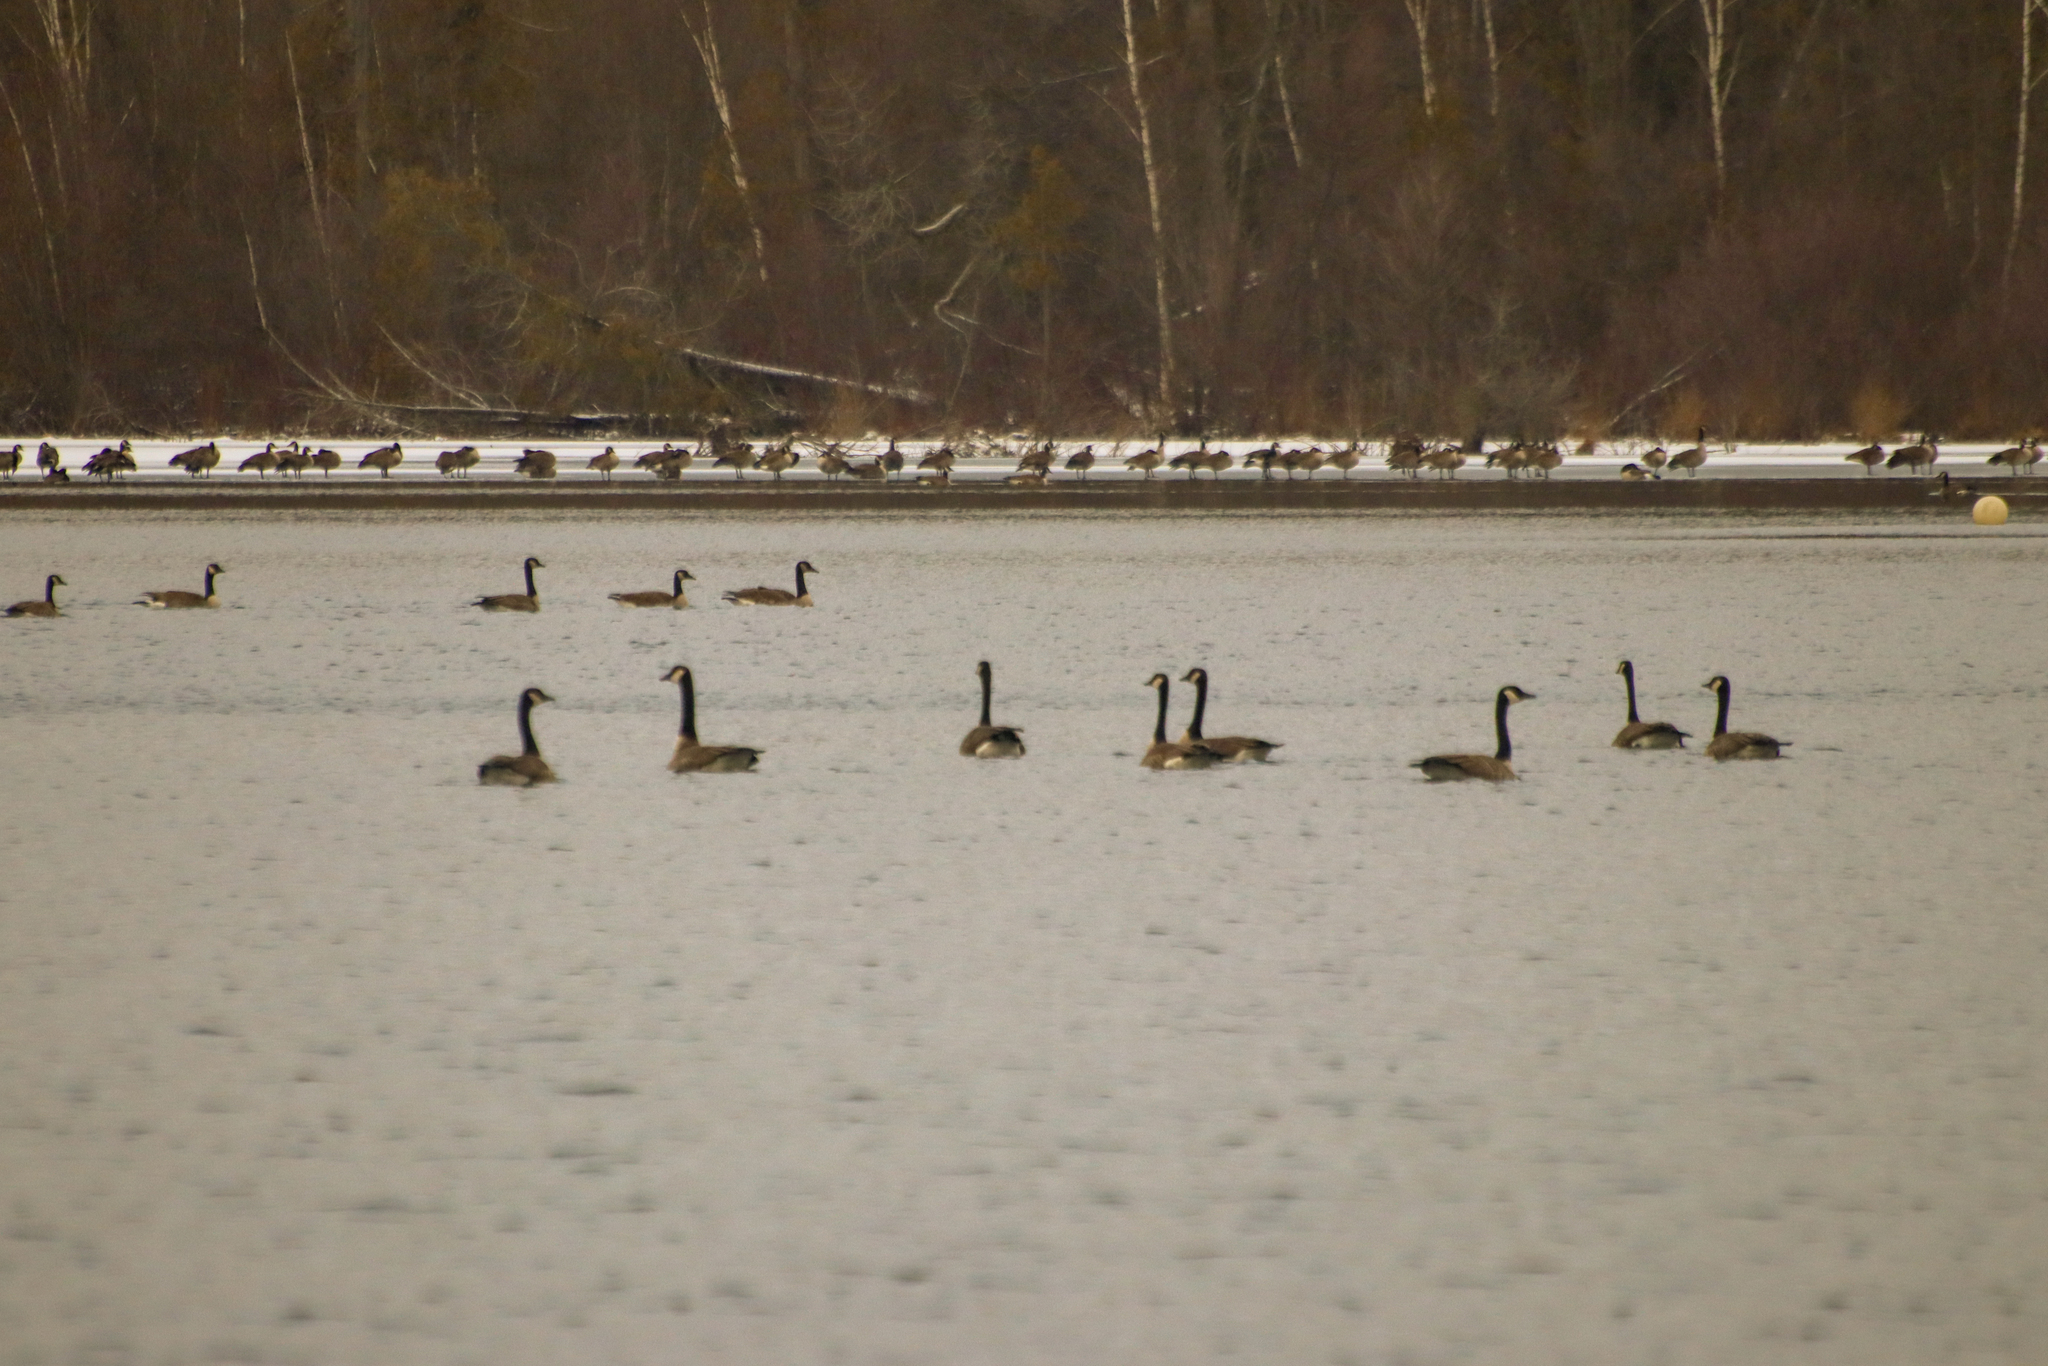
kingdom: Animalia
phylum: Chordata
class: Aves
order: Anseriformes
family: Anatidae
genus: Branta
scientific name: Branta canadensis
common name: Canada goose
